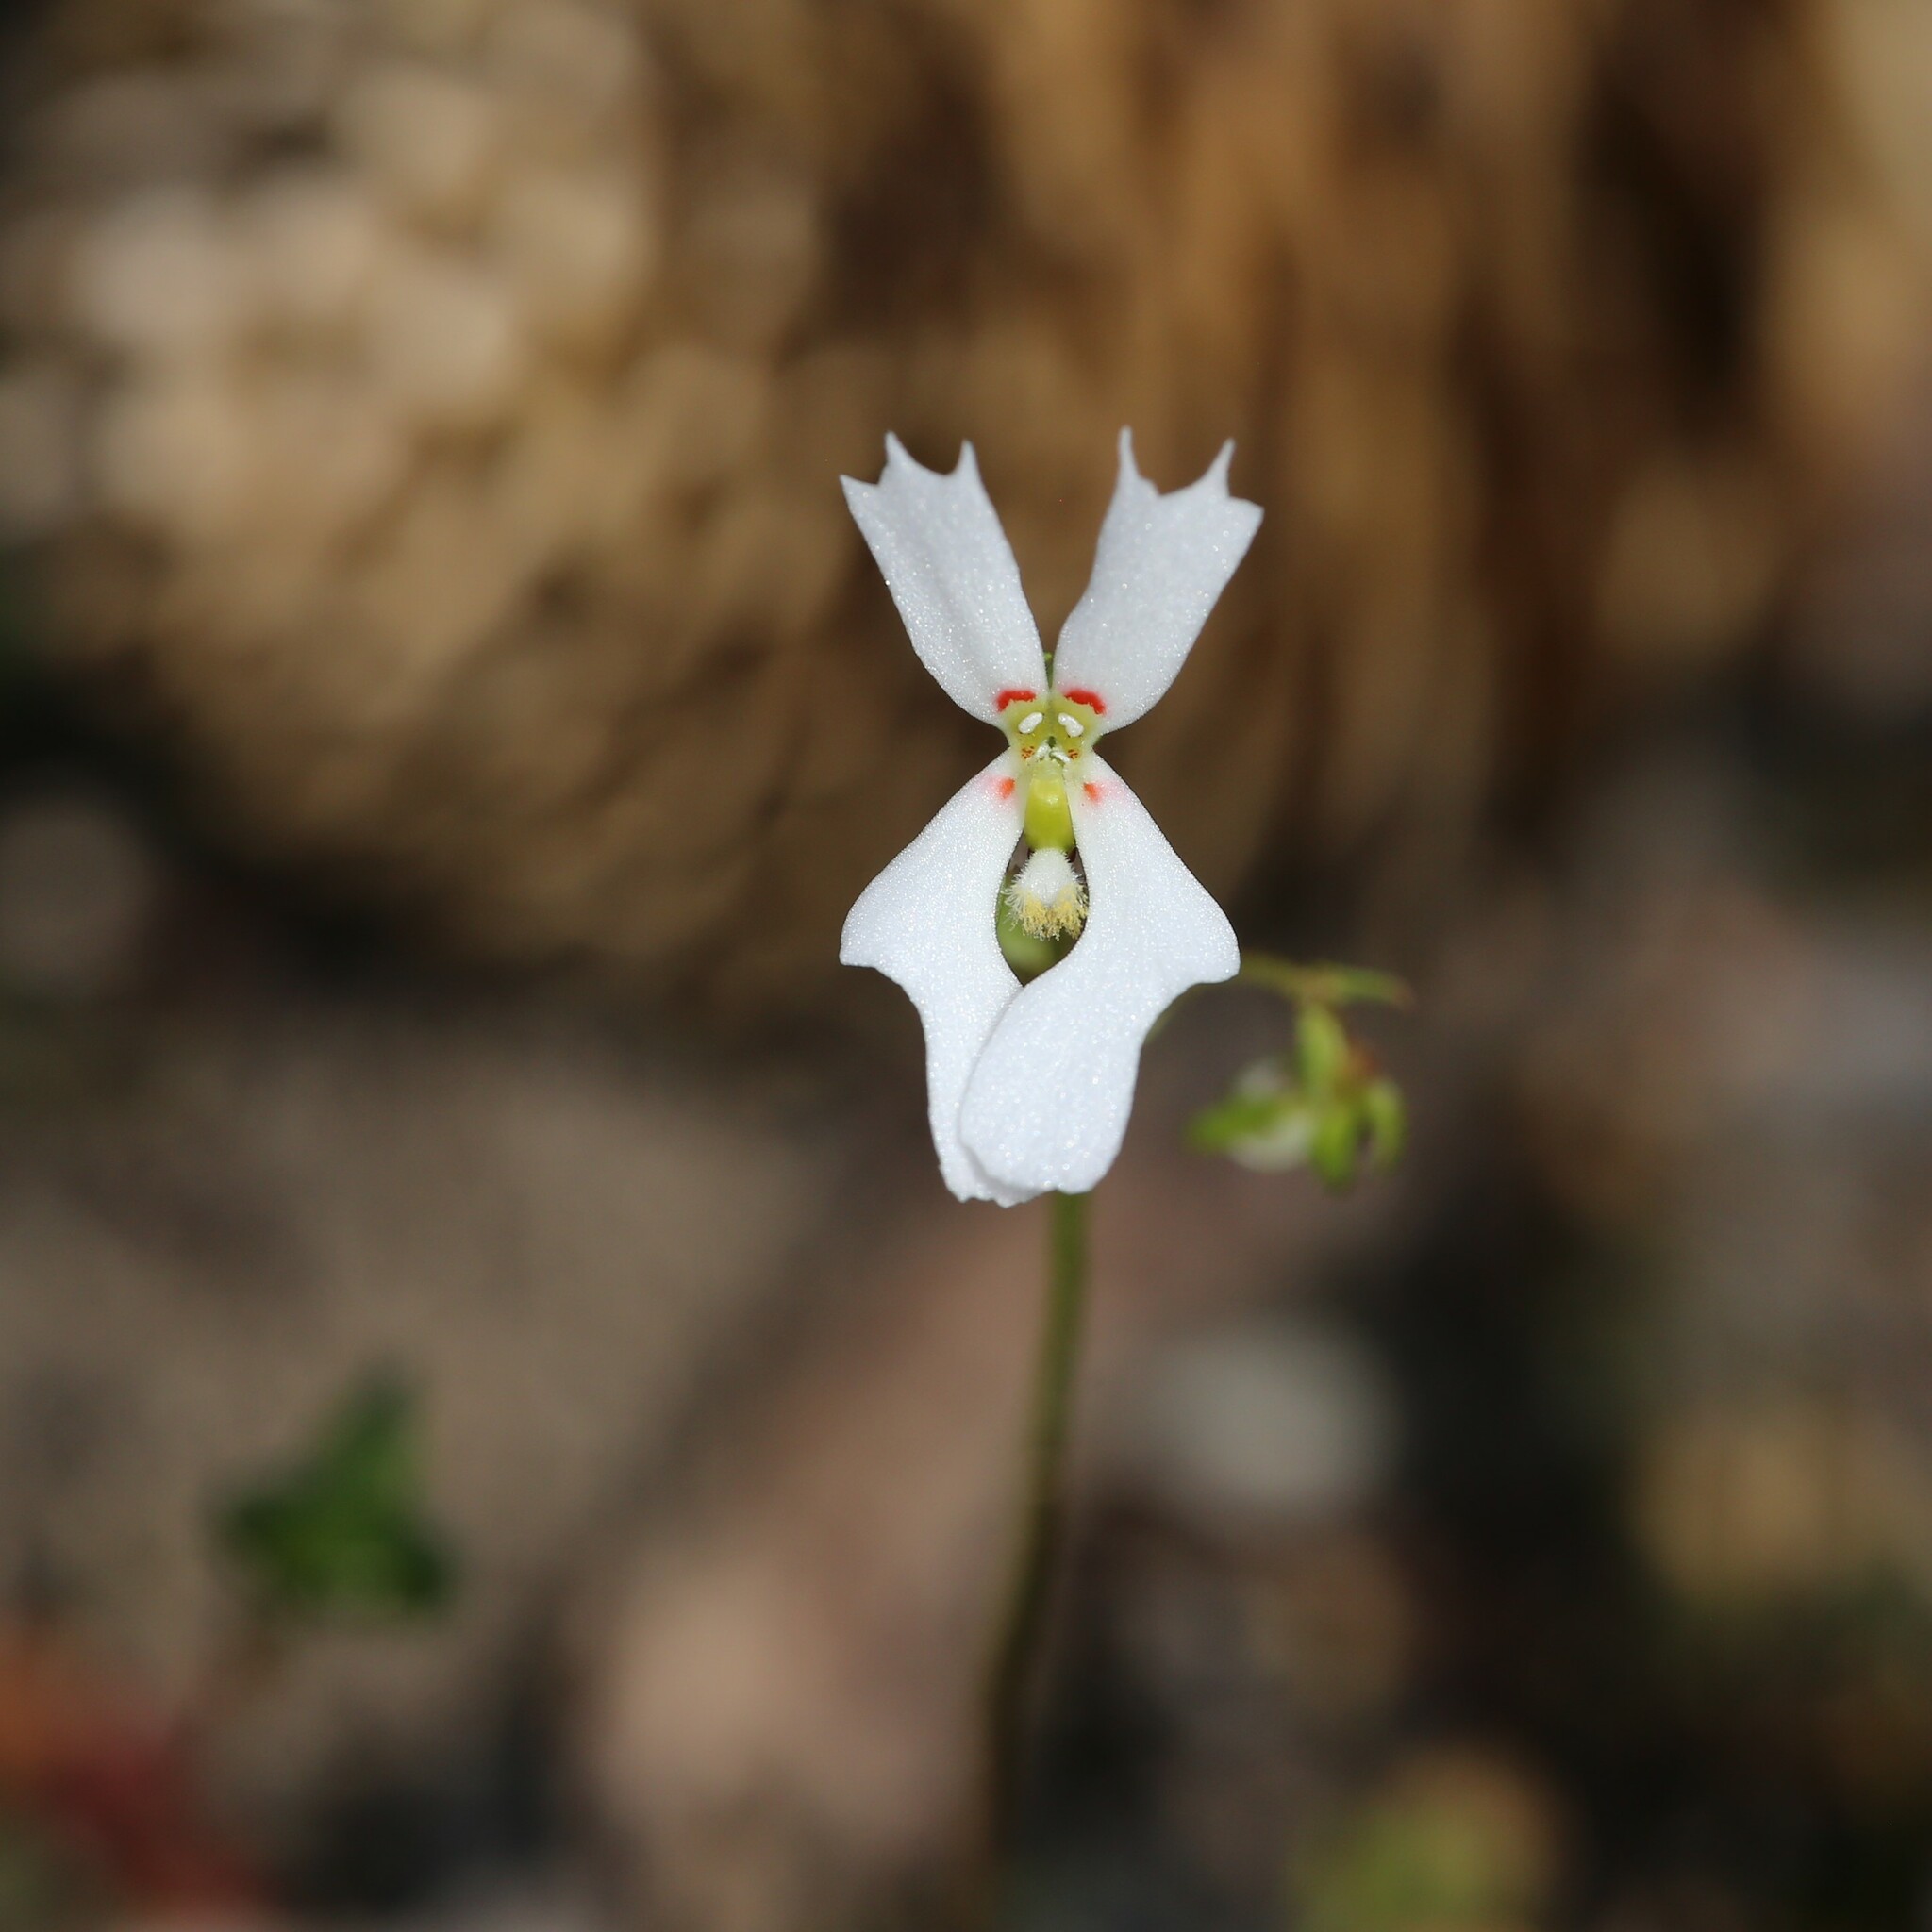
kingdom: Plantae
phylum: Tracheophyta
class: Magnoliopsida
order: Asterales
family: Stylidiaceae
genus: Stylidium
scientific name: Stylidium androsaceum
